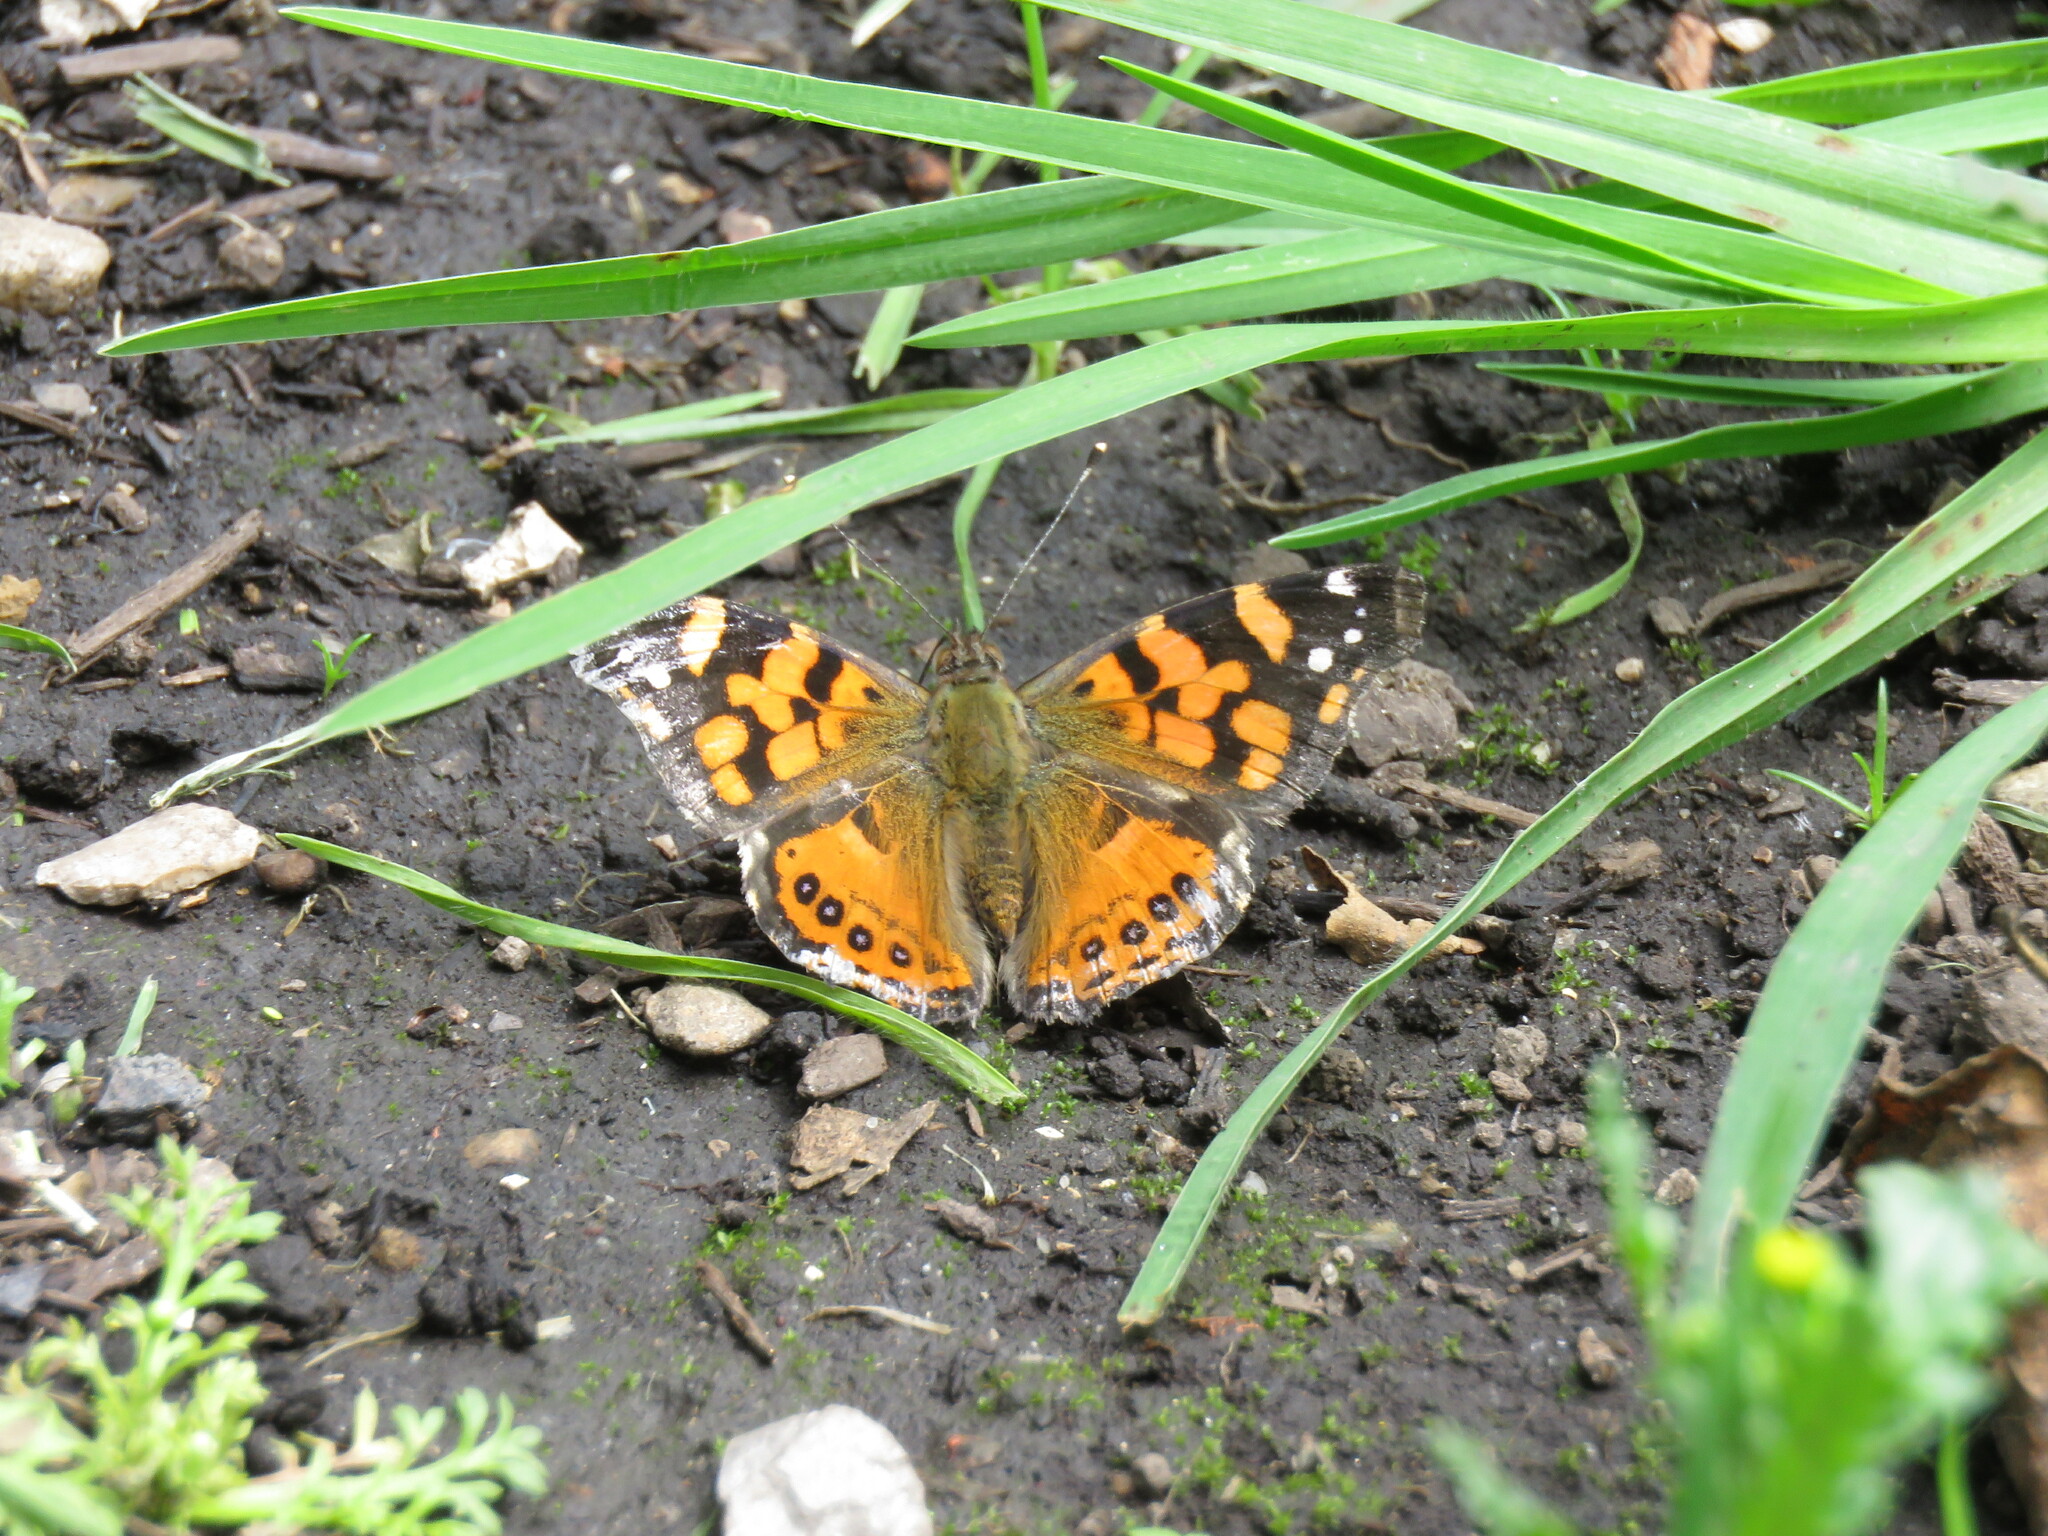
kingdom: Animalia
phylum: Arthropoda
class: Insecta
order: Lepidoptera
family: Nymphalidae
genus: Vanessa
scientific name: Vanessa carye
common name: Subtropical lady
